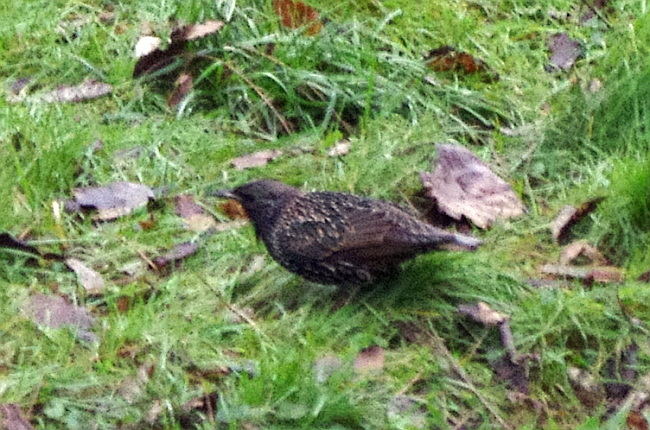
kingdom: Animalia
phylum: Chordata
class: Aves
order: Passeriformes
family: Sturnidae
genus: Sturnus
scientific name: Sturnus vulgaris
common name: Common starling
